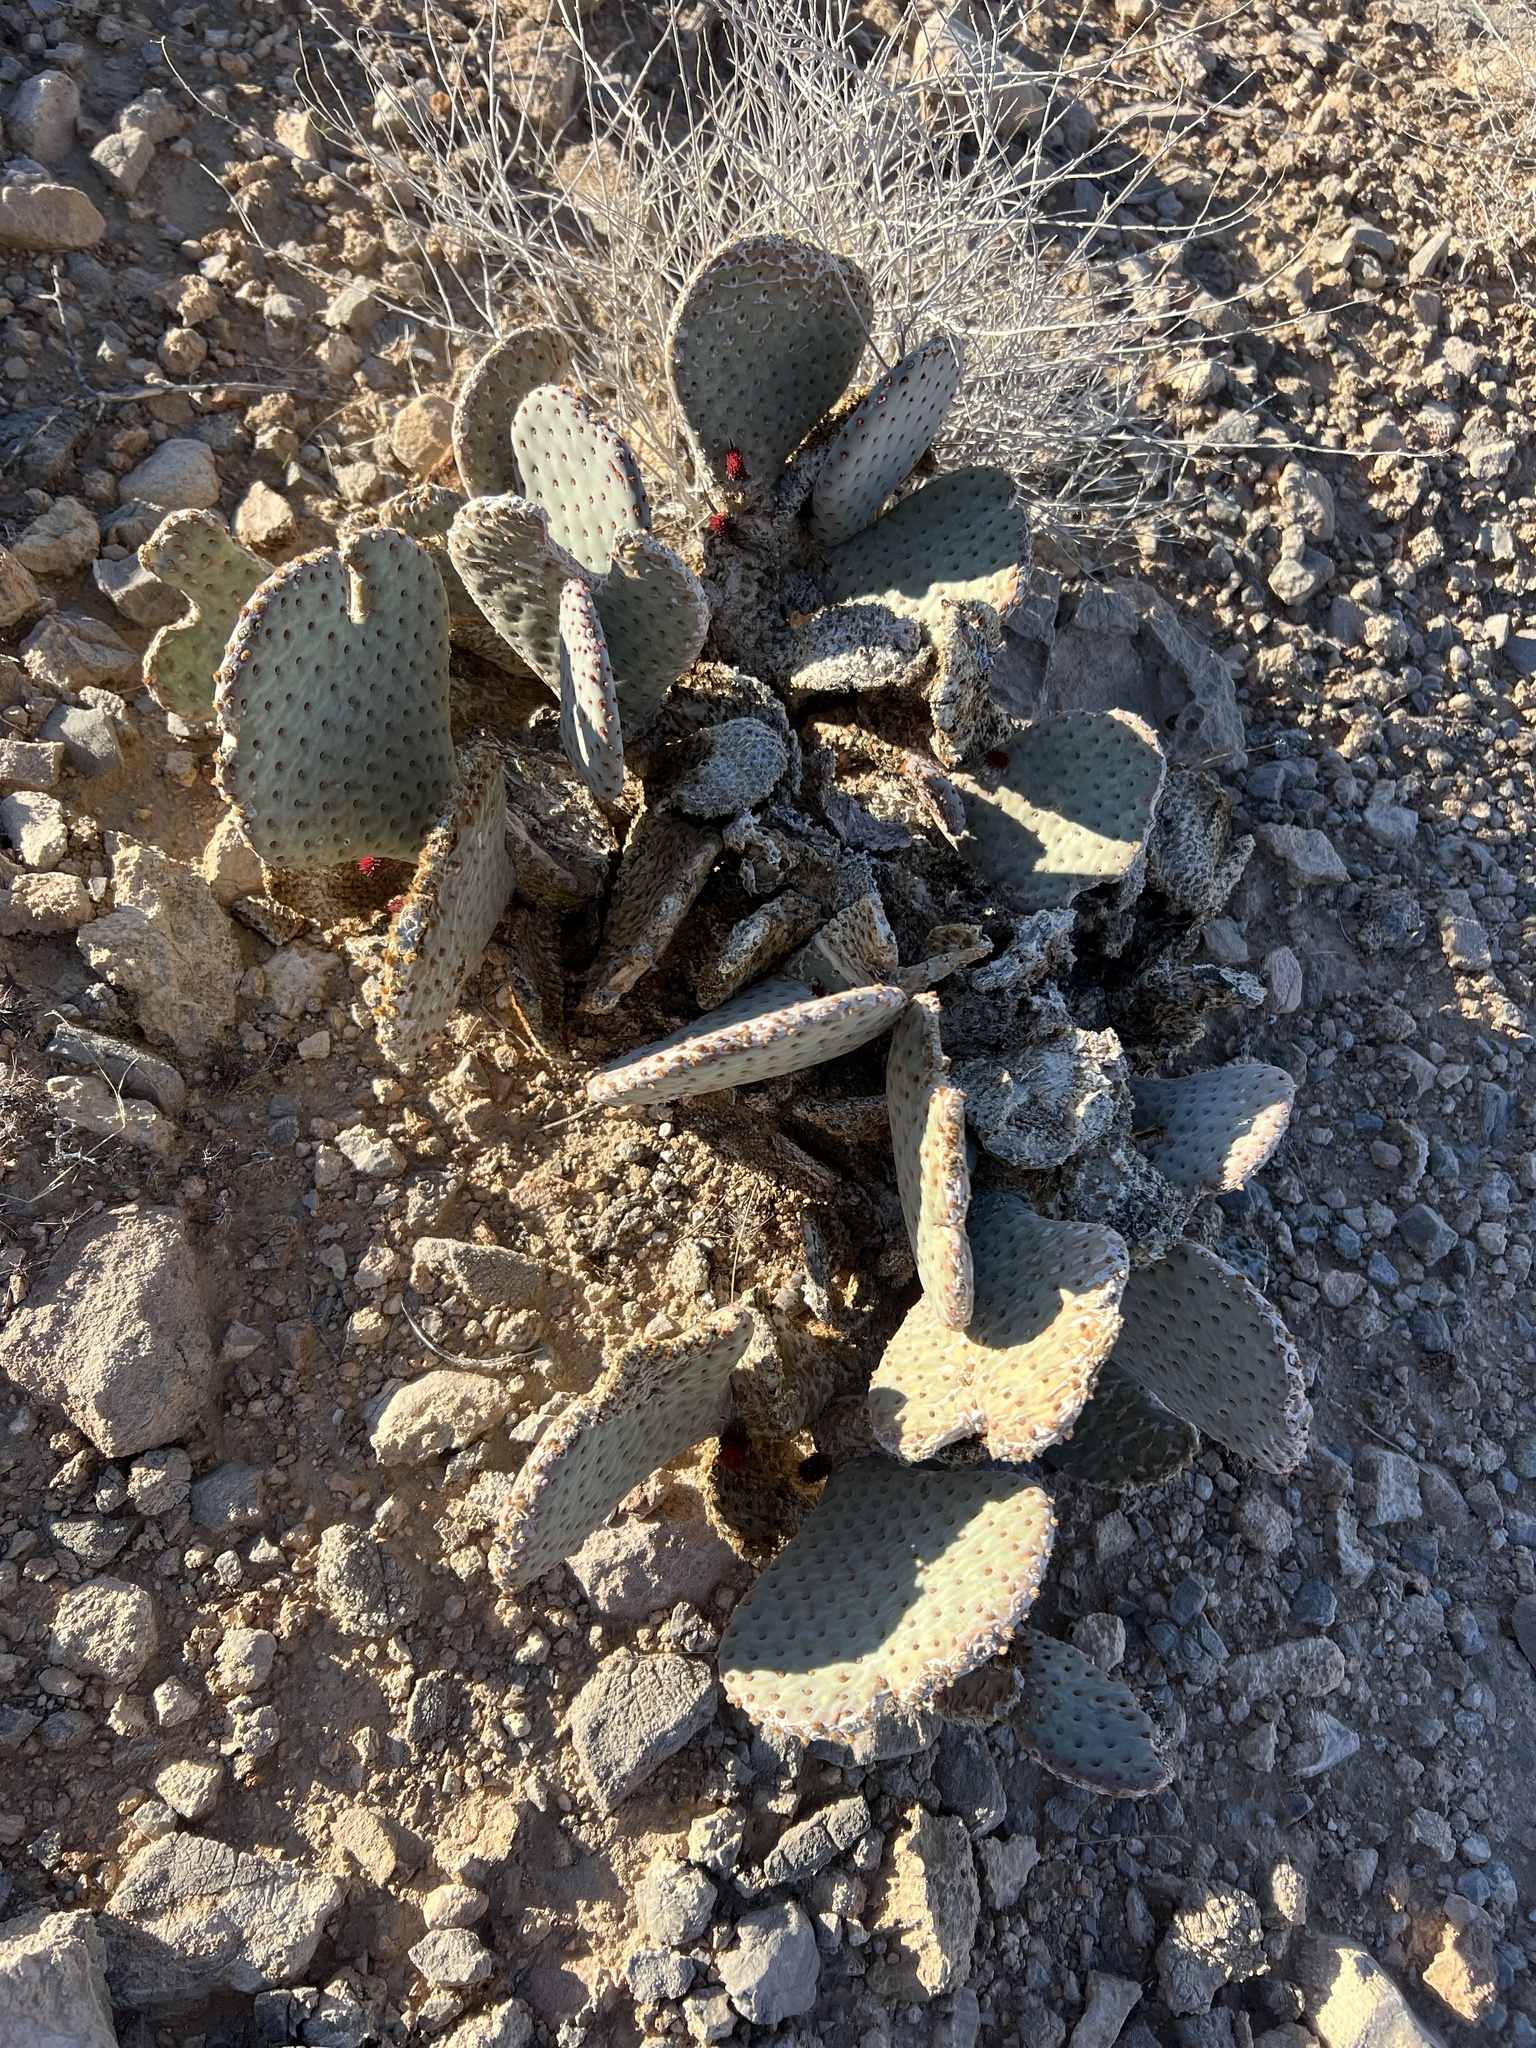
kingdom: Plantae
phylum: Tracheophyta
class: Magnoliopsida
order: Caryophyllales
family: Cactaceae
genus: Opuntia
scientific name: Opuntia basilaris
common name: Beavertail prickly-pear
